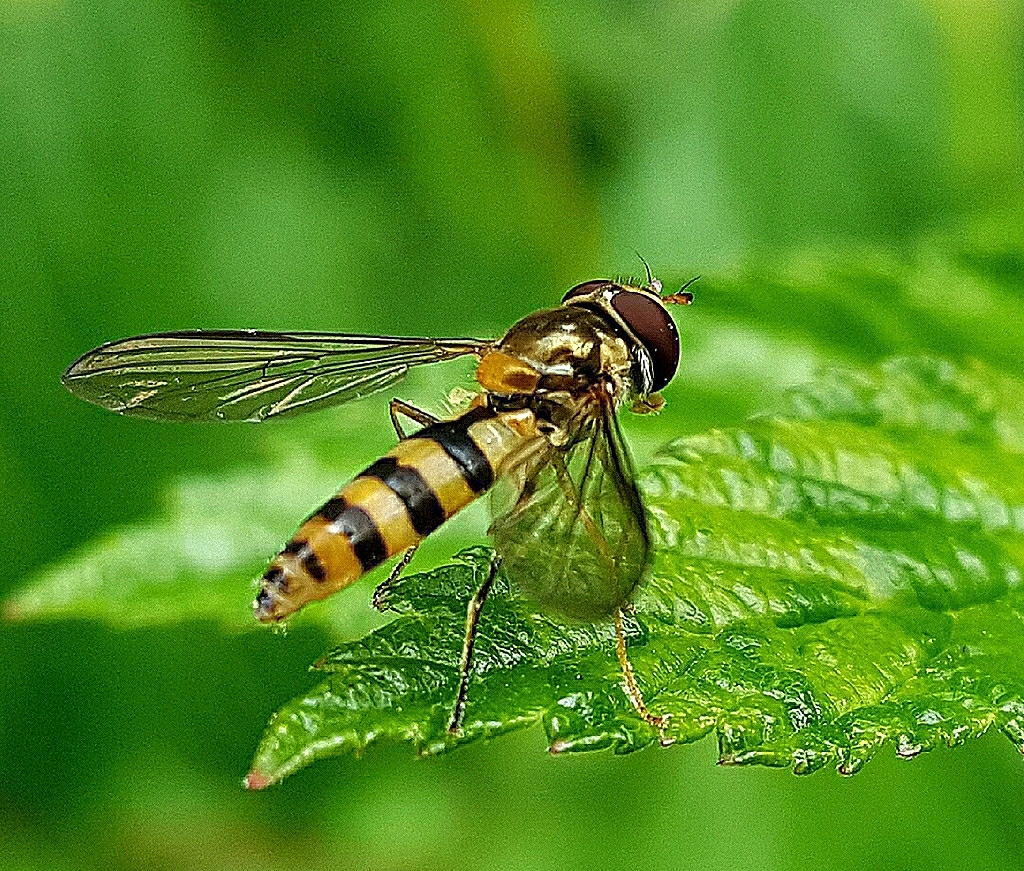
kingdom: Animalia
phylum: Arthropoda
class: Insecta
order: Diptera
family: Syrphidae
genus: Meliscaeva
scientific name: Meliscaeva cinctella
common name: American thintail fly
